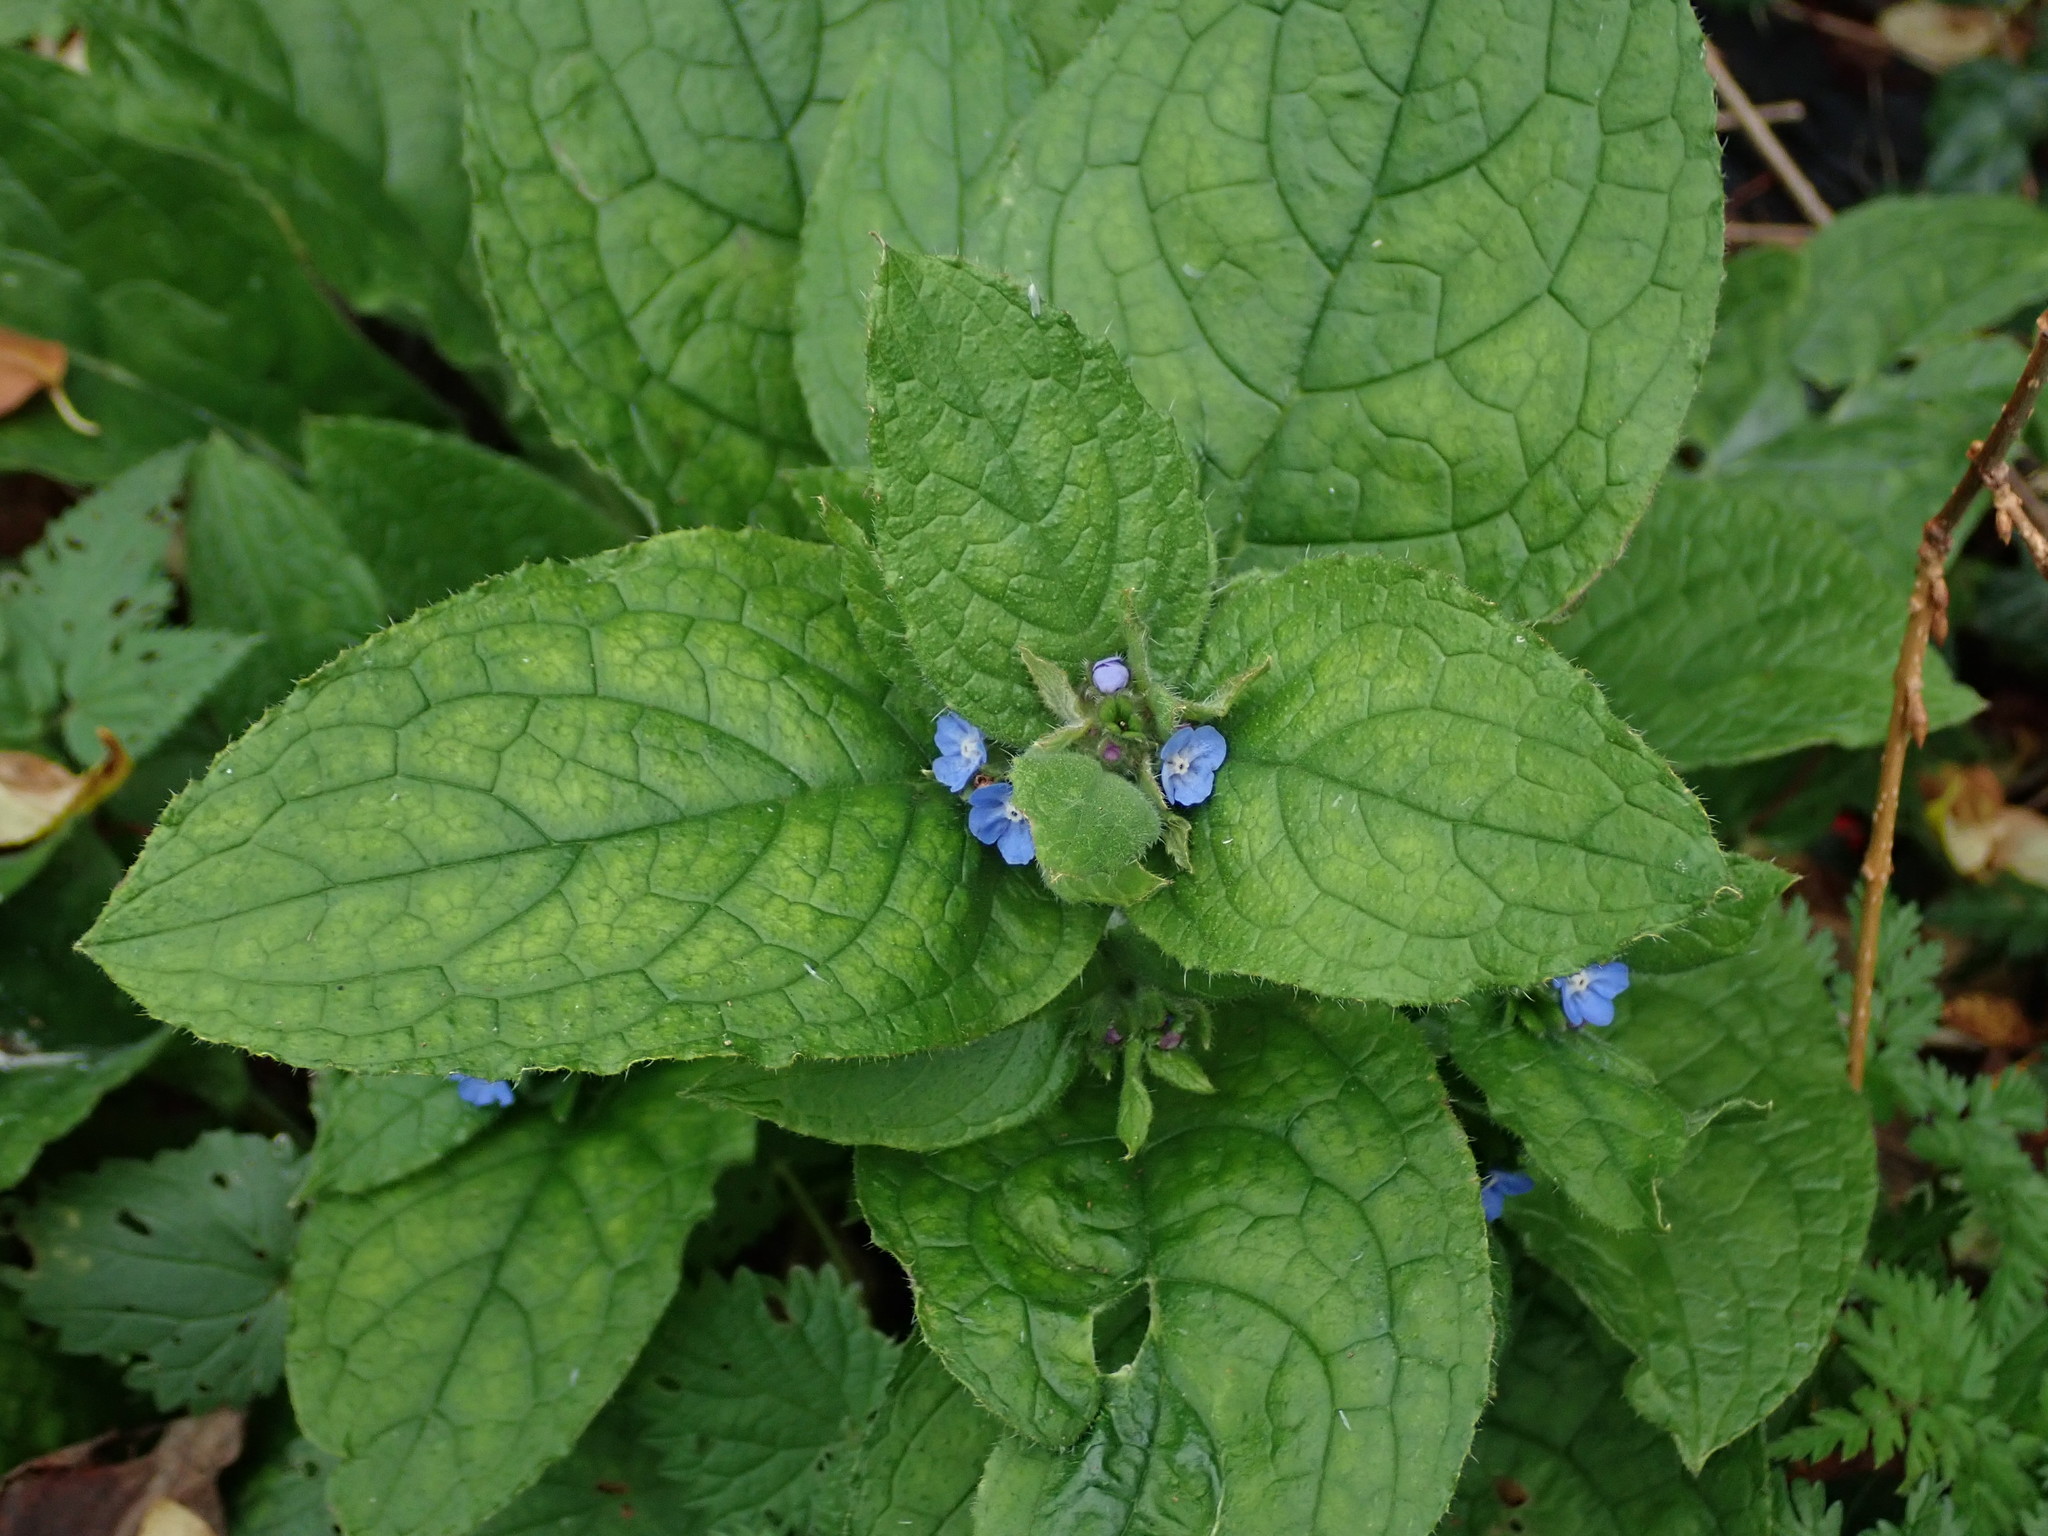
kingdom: Plantae
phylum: Tracheophyta
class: Magnoliopsida
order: Boraginales
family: Boraginaceae
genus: Pentaglottis
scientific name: Pentaglottis sempervirens
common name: Green alkanet
